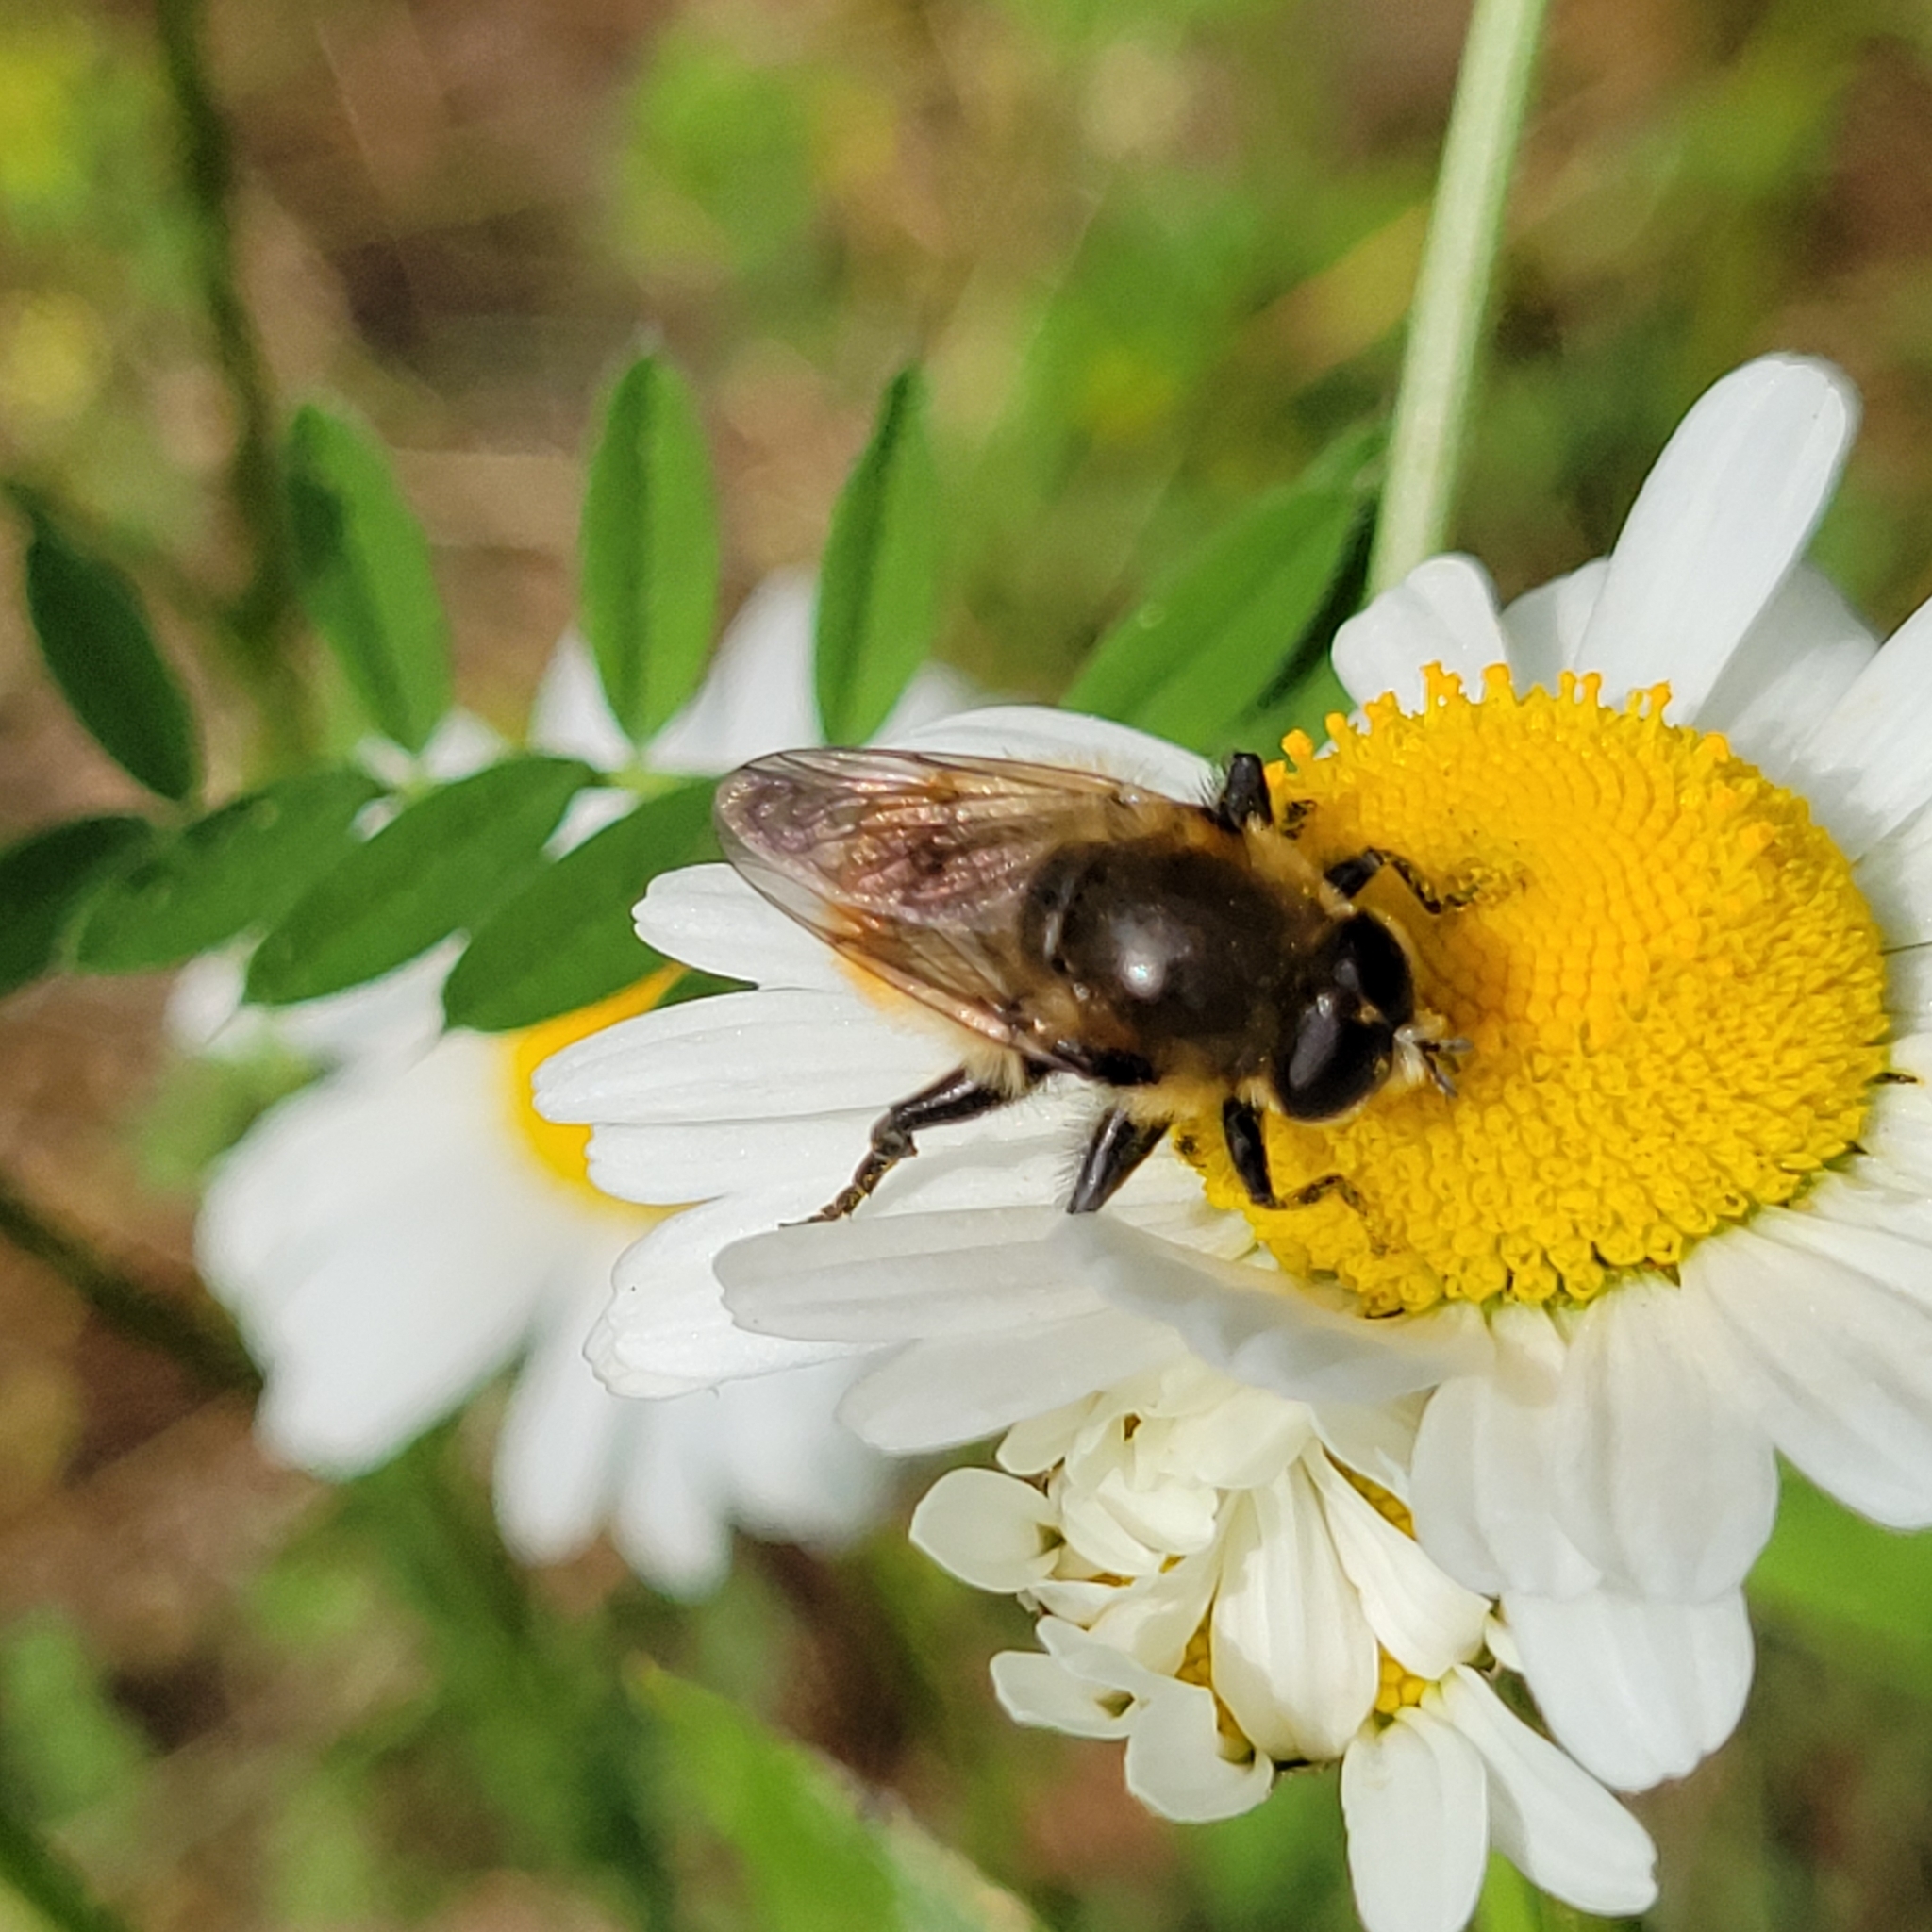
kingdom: Animalia
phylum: Arthropoda
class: Insecta
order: Diptera
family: Syrphidae
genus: Merodon
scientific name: Merodon equestris
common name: Greater bulb-fly
